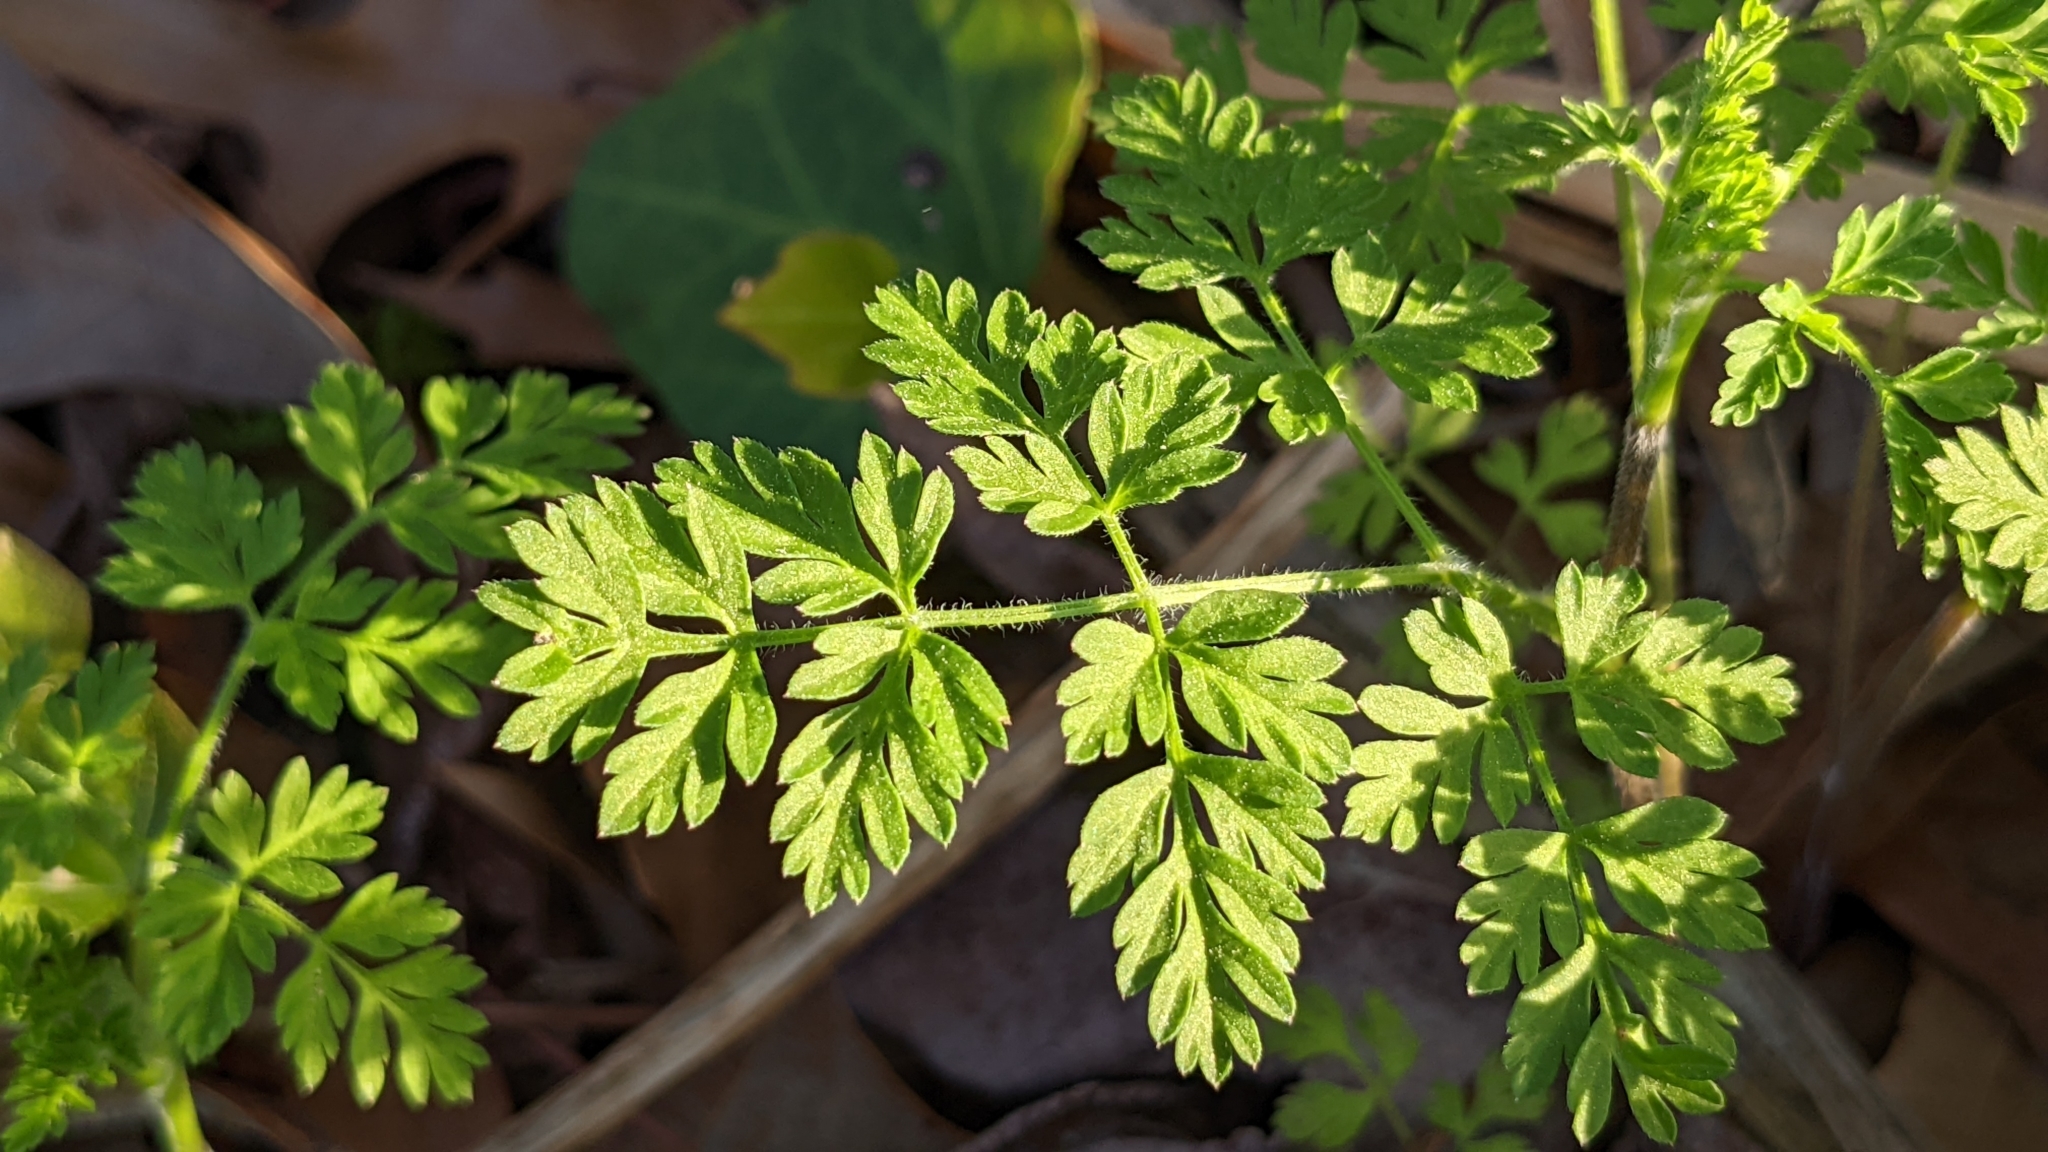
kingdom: Plantae
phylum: Tracheophyta
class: Magnoliopsida
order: Apiales
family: Apiaceae
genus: Chaerophyllum
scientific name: Chaerophyllum tainturieri
